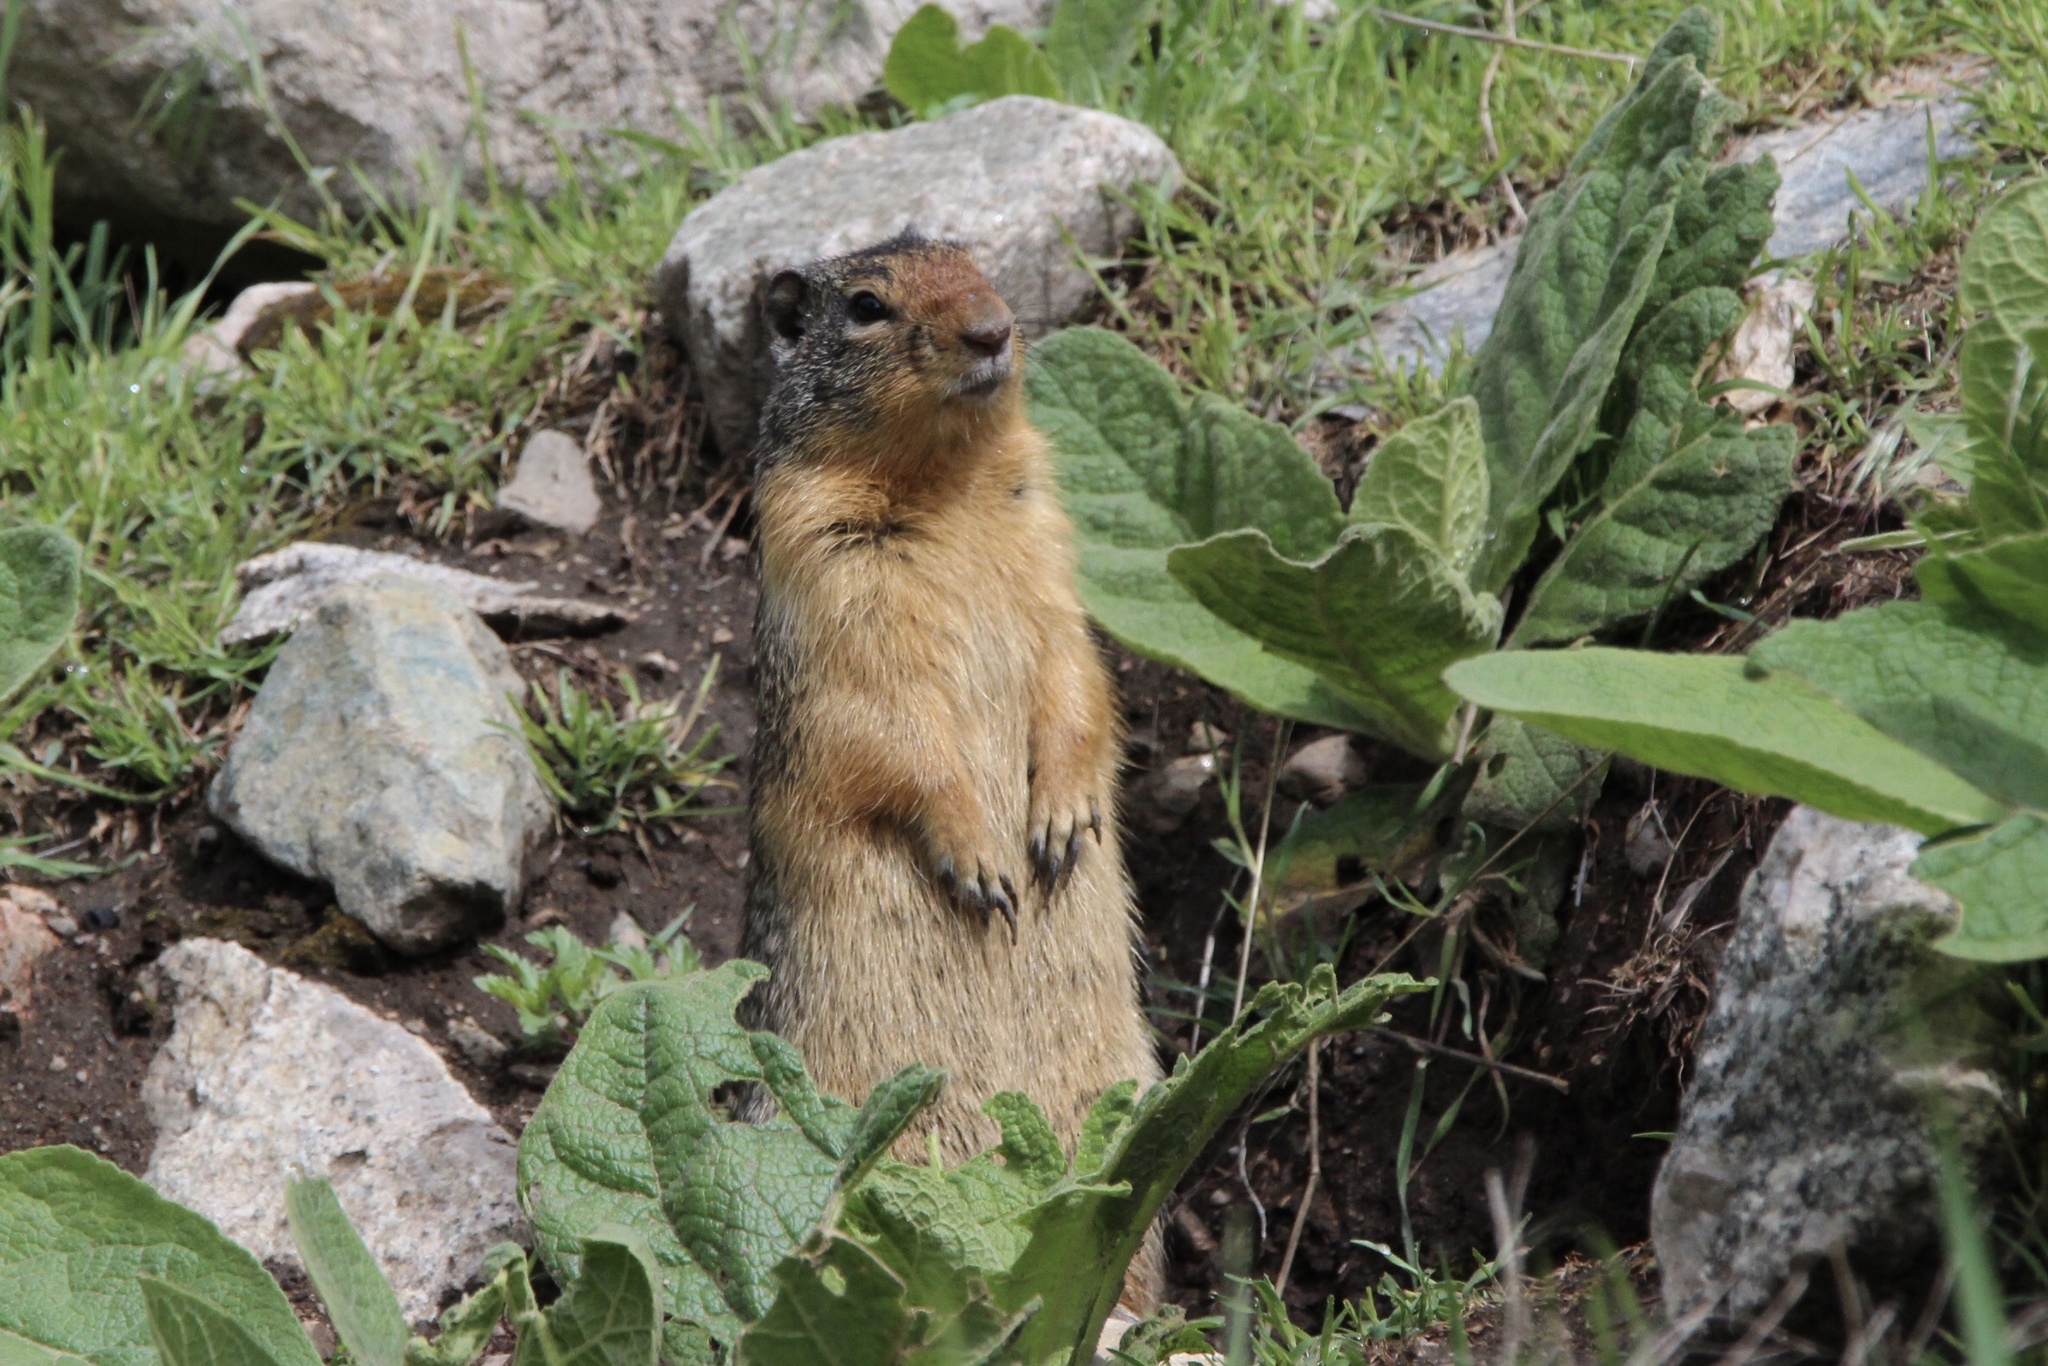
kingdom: Animalia
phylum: Chordata
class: Mammalia
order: Rodentia
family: Sciuridae
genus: Urocitellus
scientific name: Urocitellus columbianus
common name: Columbian ground squirrel
